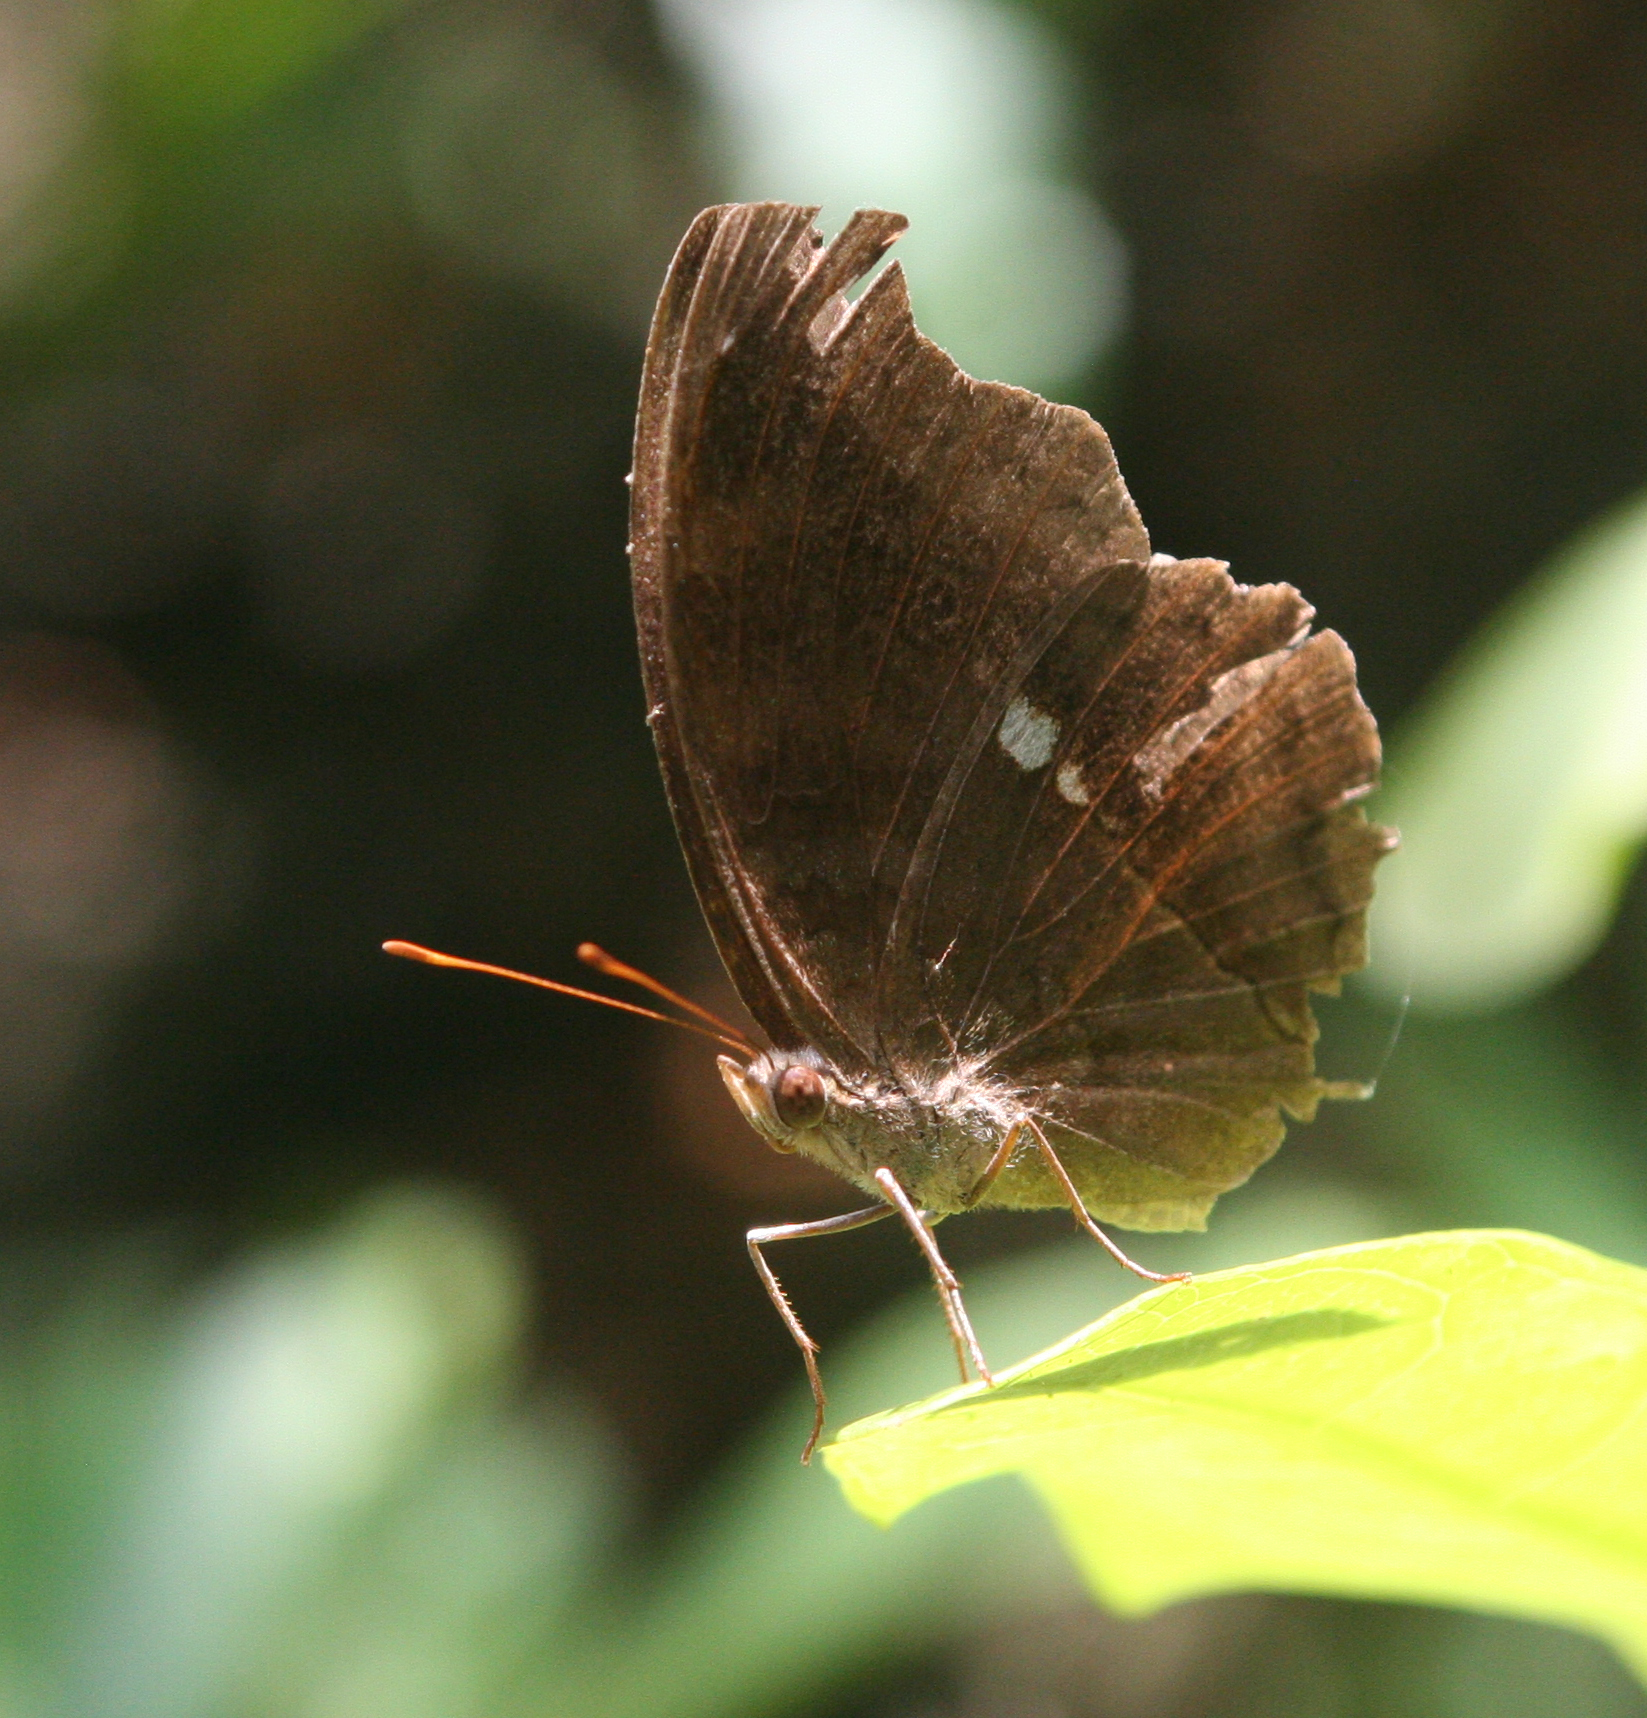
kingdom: Animalia
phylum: Arthropoda
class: Insecta
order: Lepidoptera
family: Nymphalidae
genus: Junonia
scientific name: Junonia iphita
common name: Chocolate pansy
